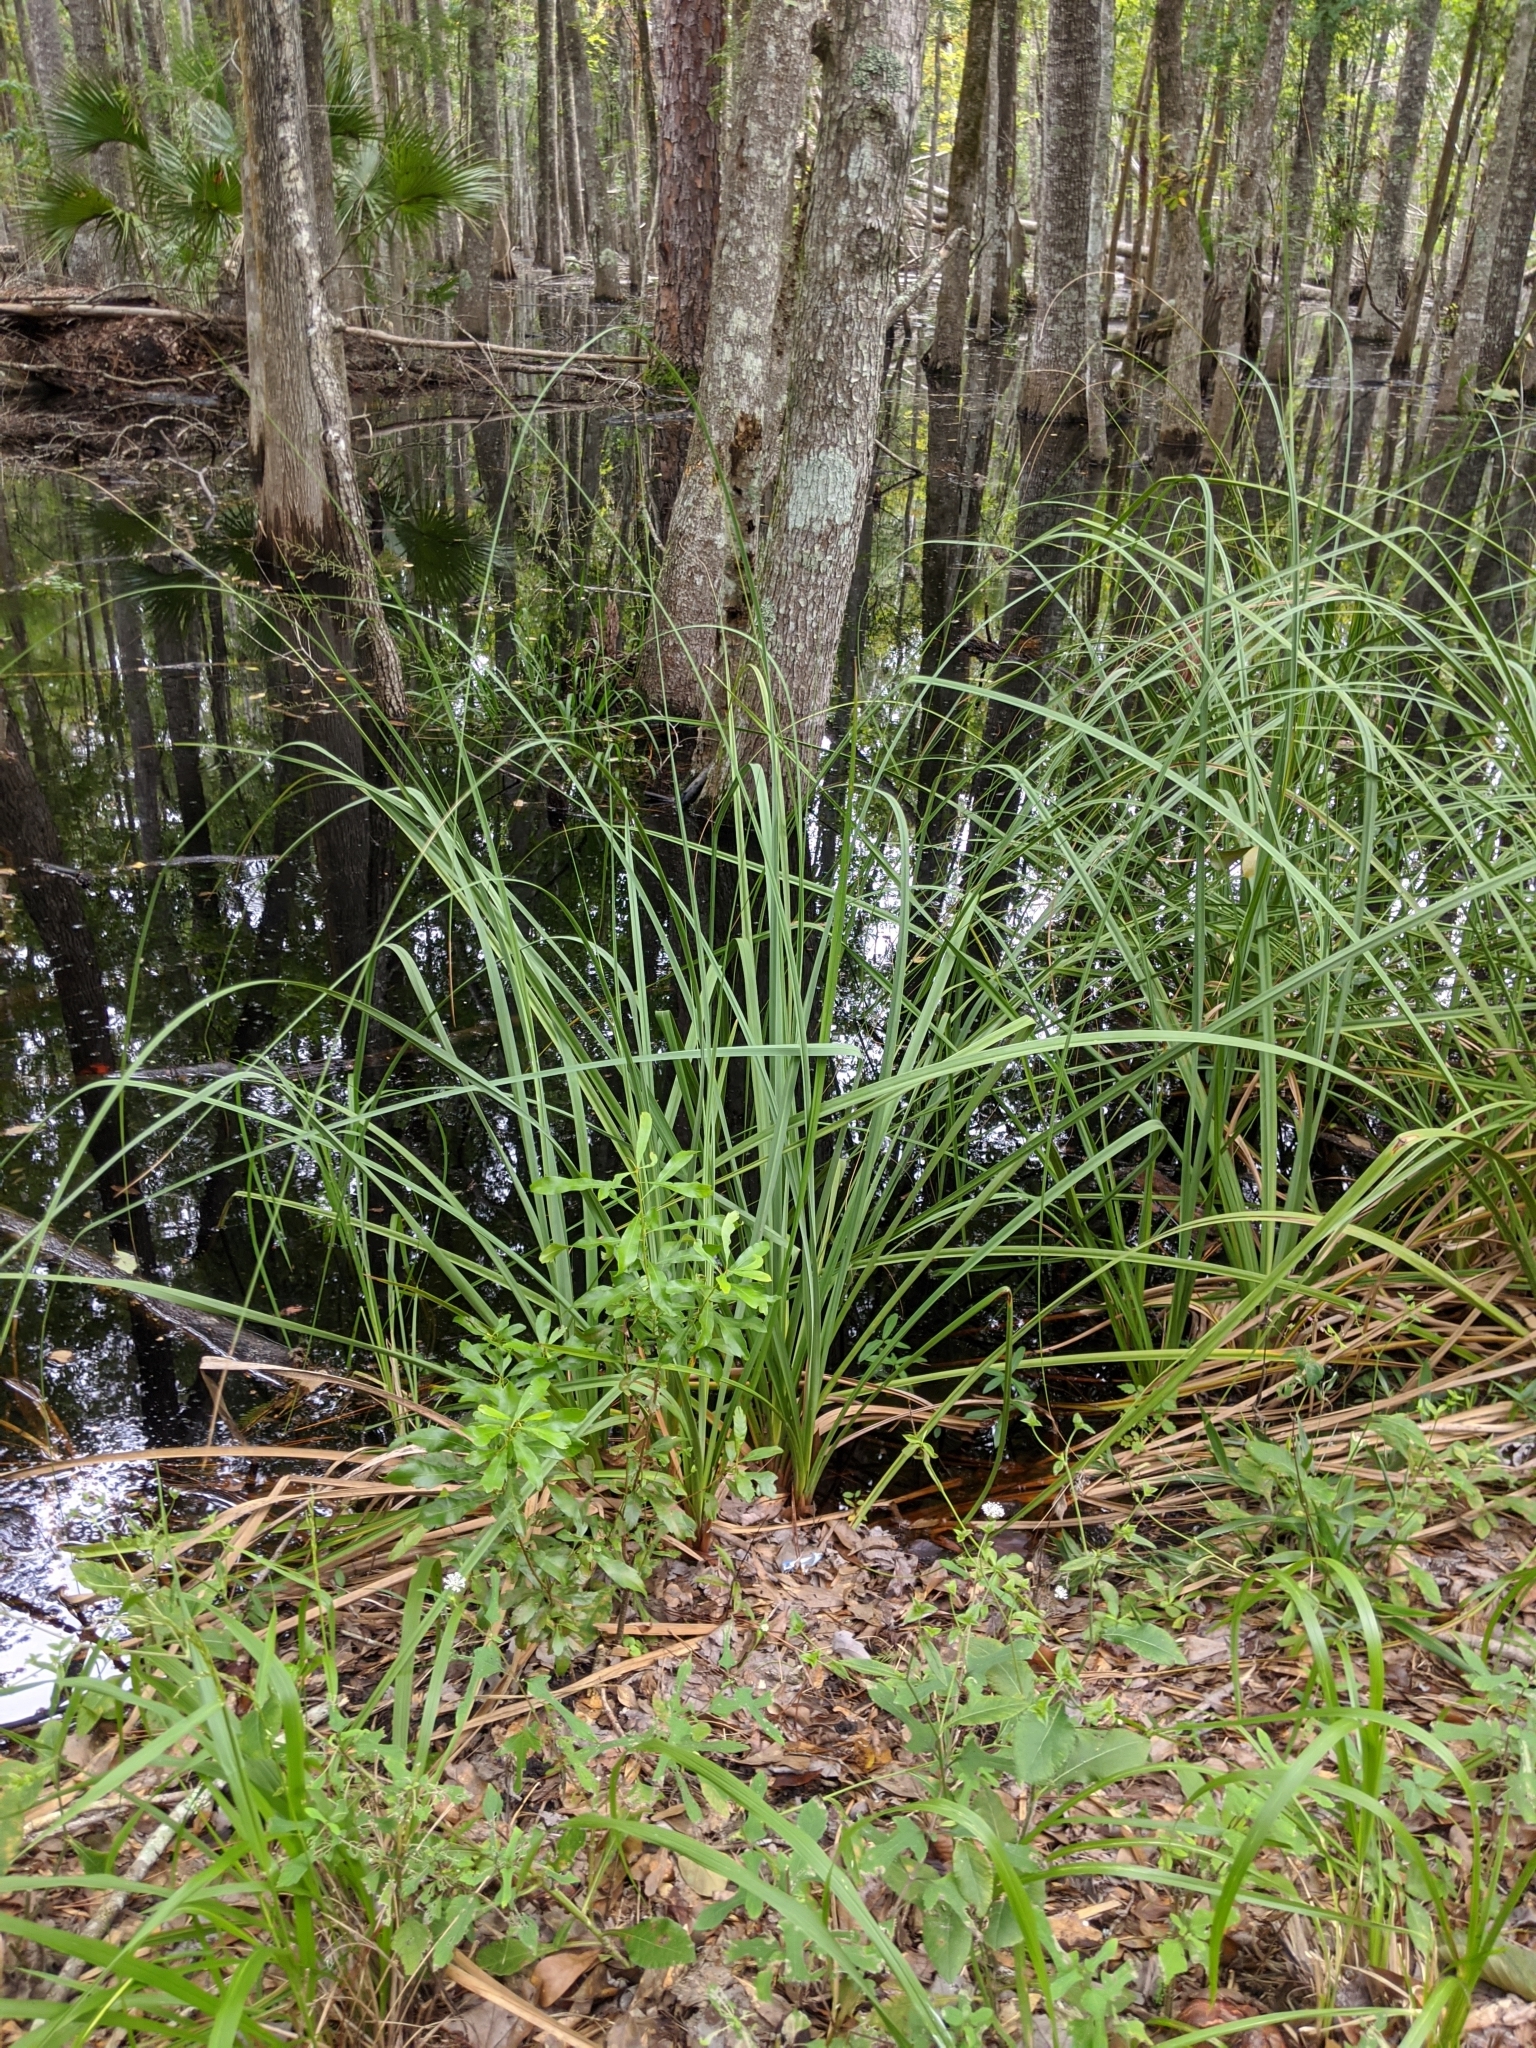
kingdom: Plantae
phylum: Tracheophyta
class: Magnoliopsida
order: Asterales
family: Asteraceae
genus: Melanthera
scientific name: Melanthera nivea
